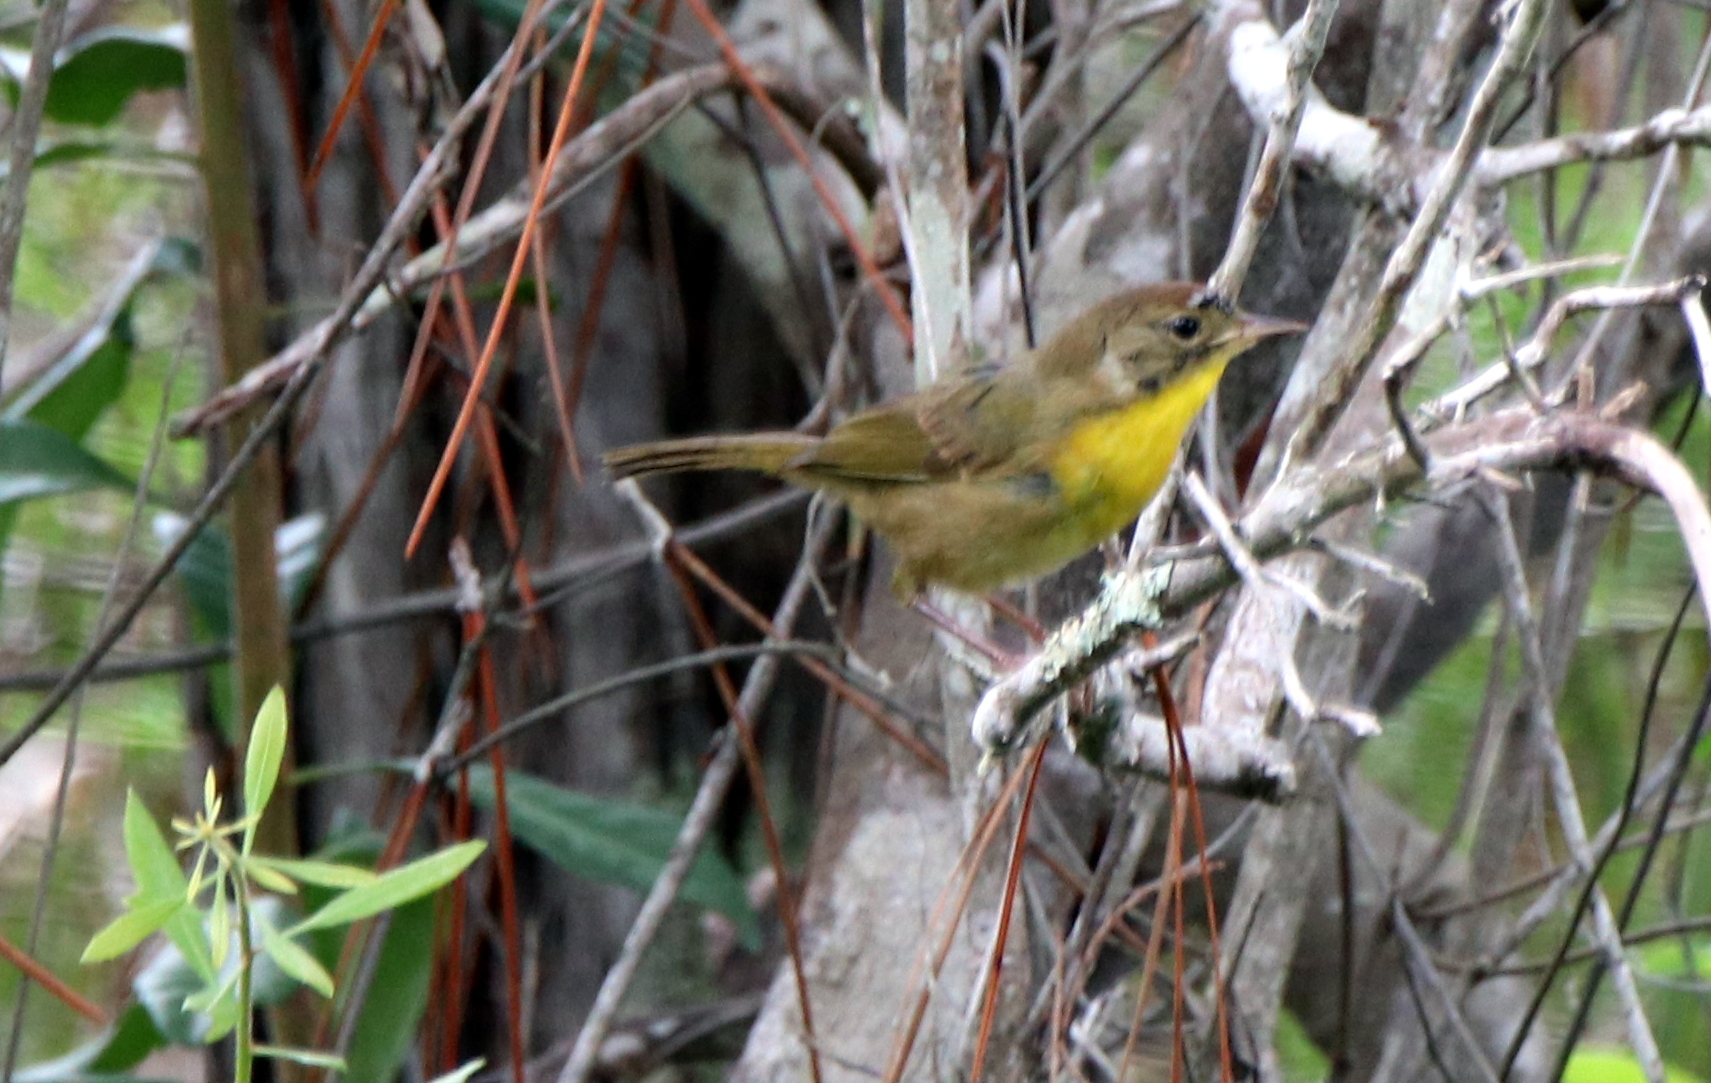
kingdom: Animalia
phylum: Chordata
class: Aves
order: Passeriformes
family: Parulidae
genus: Geothlypis
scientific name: Geothlypis trichas
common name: Common yellowthroat
